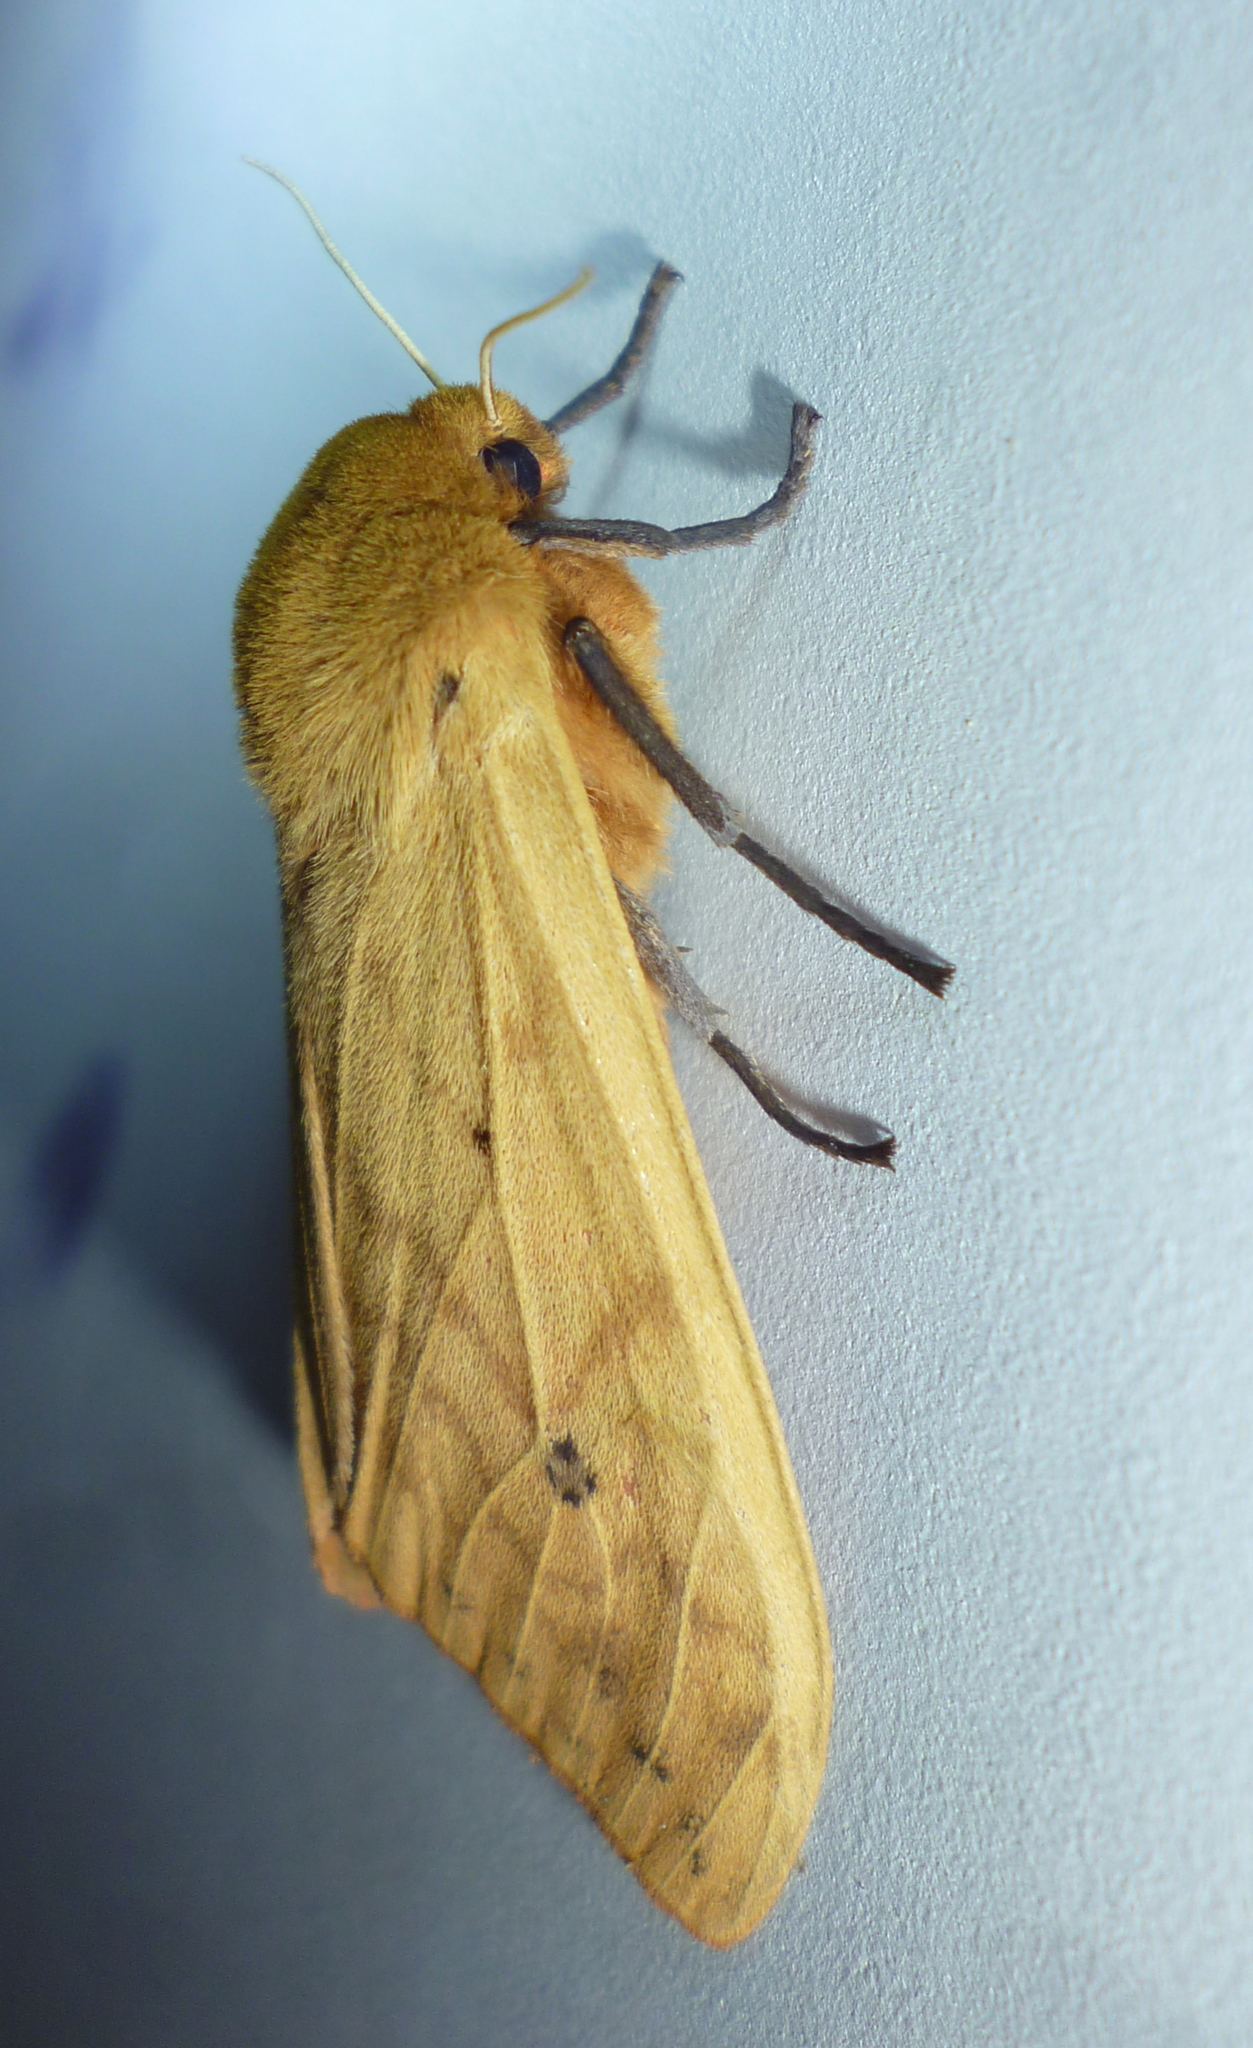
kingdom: Animalia
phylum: Arthropoda
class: Insecta
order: Lepidoptera
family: Erebidae
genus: Pyrrharctia
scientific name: Pyrrharctia isabella
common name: Isabella tiger moth
